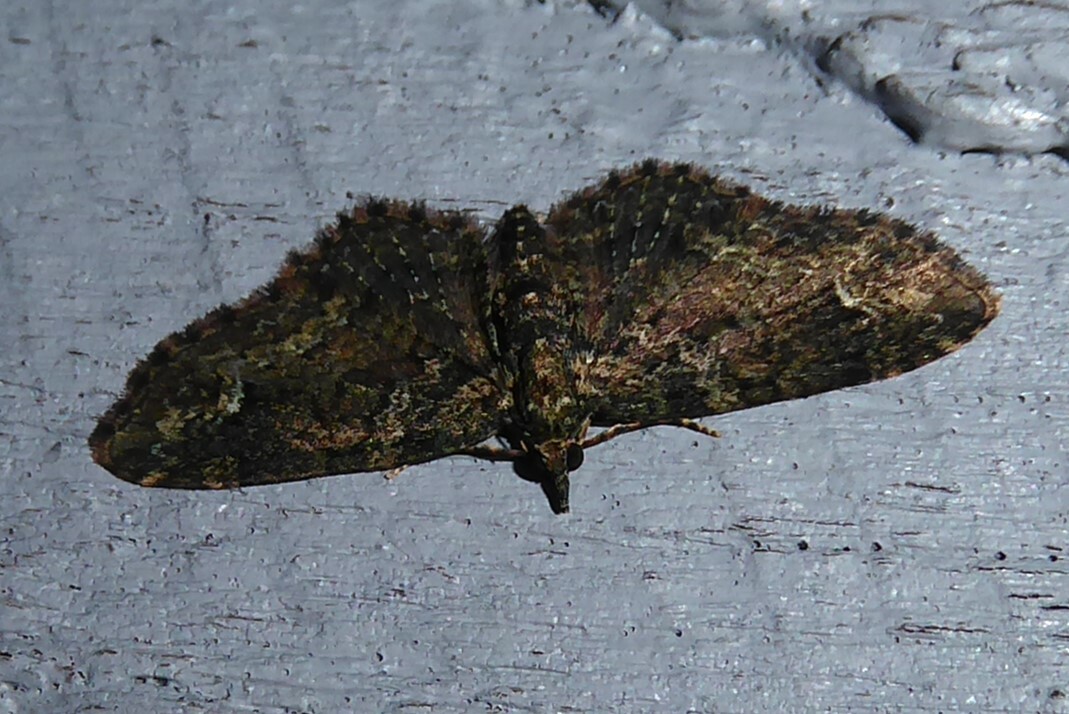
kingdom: Animalia
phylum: Arthropoda
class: Insecta
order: Lepidoptera
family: Geometridae
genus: Pasiphilodes
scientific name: Pasiphilodes testulata
